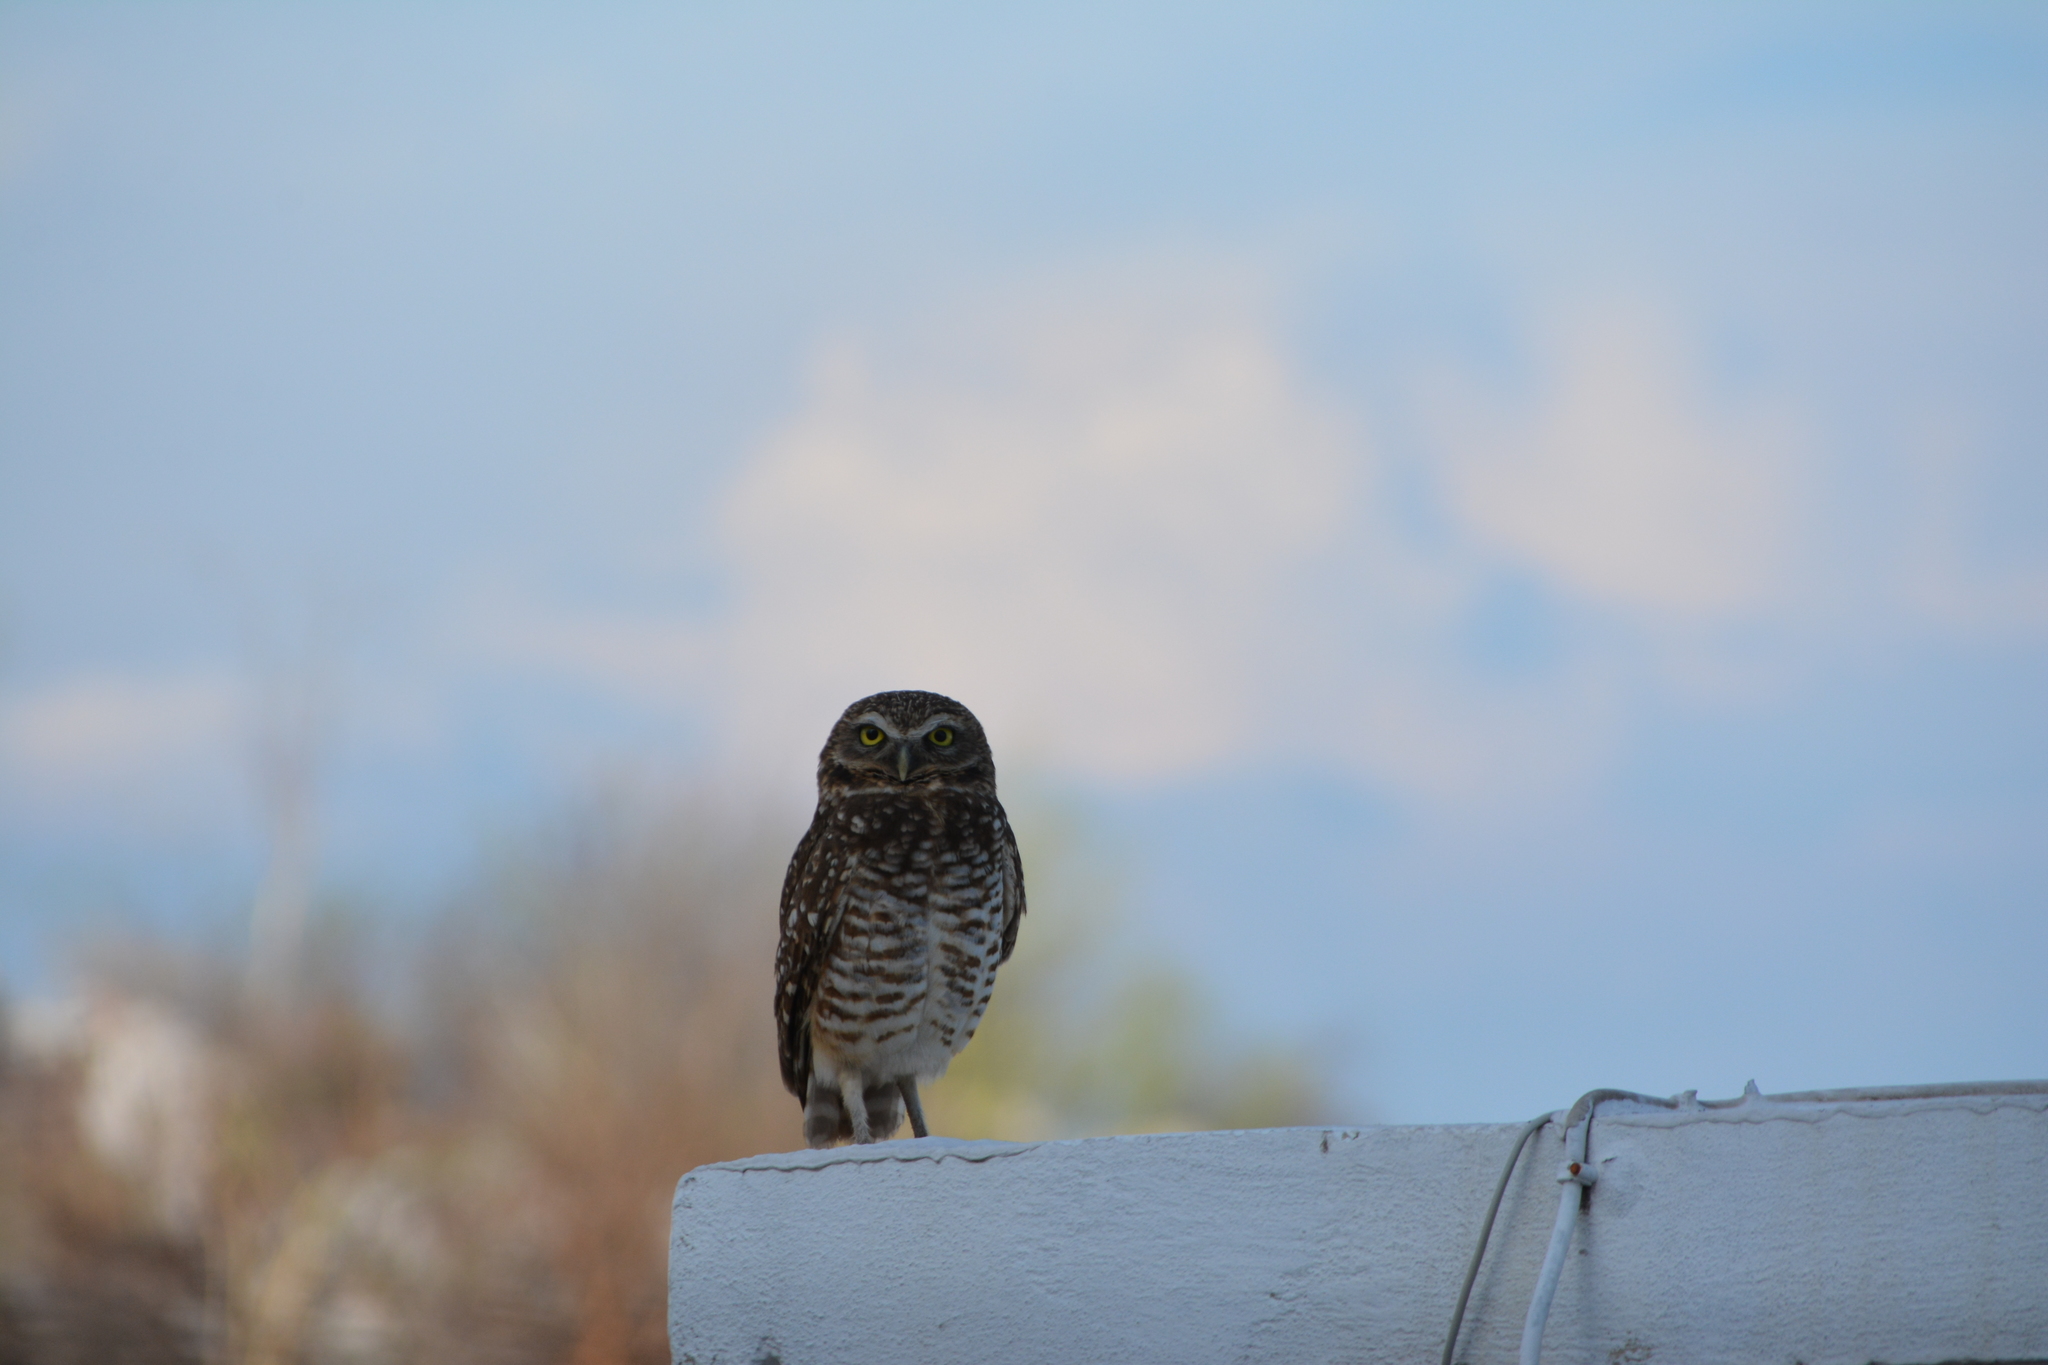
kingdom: Animalia
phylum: Chordata
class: Aves
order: Strigiformes
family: Strigidae
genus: Athene
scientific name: Athene cunicularia
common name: Burrowing owl
